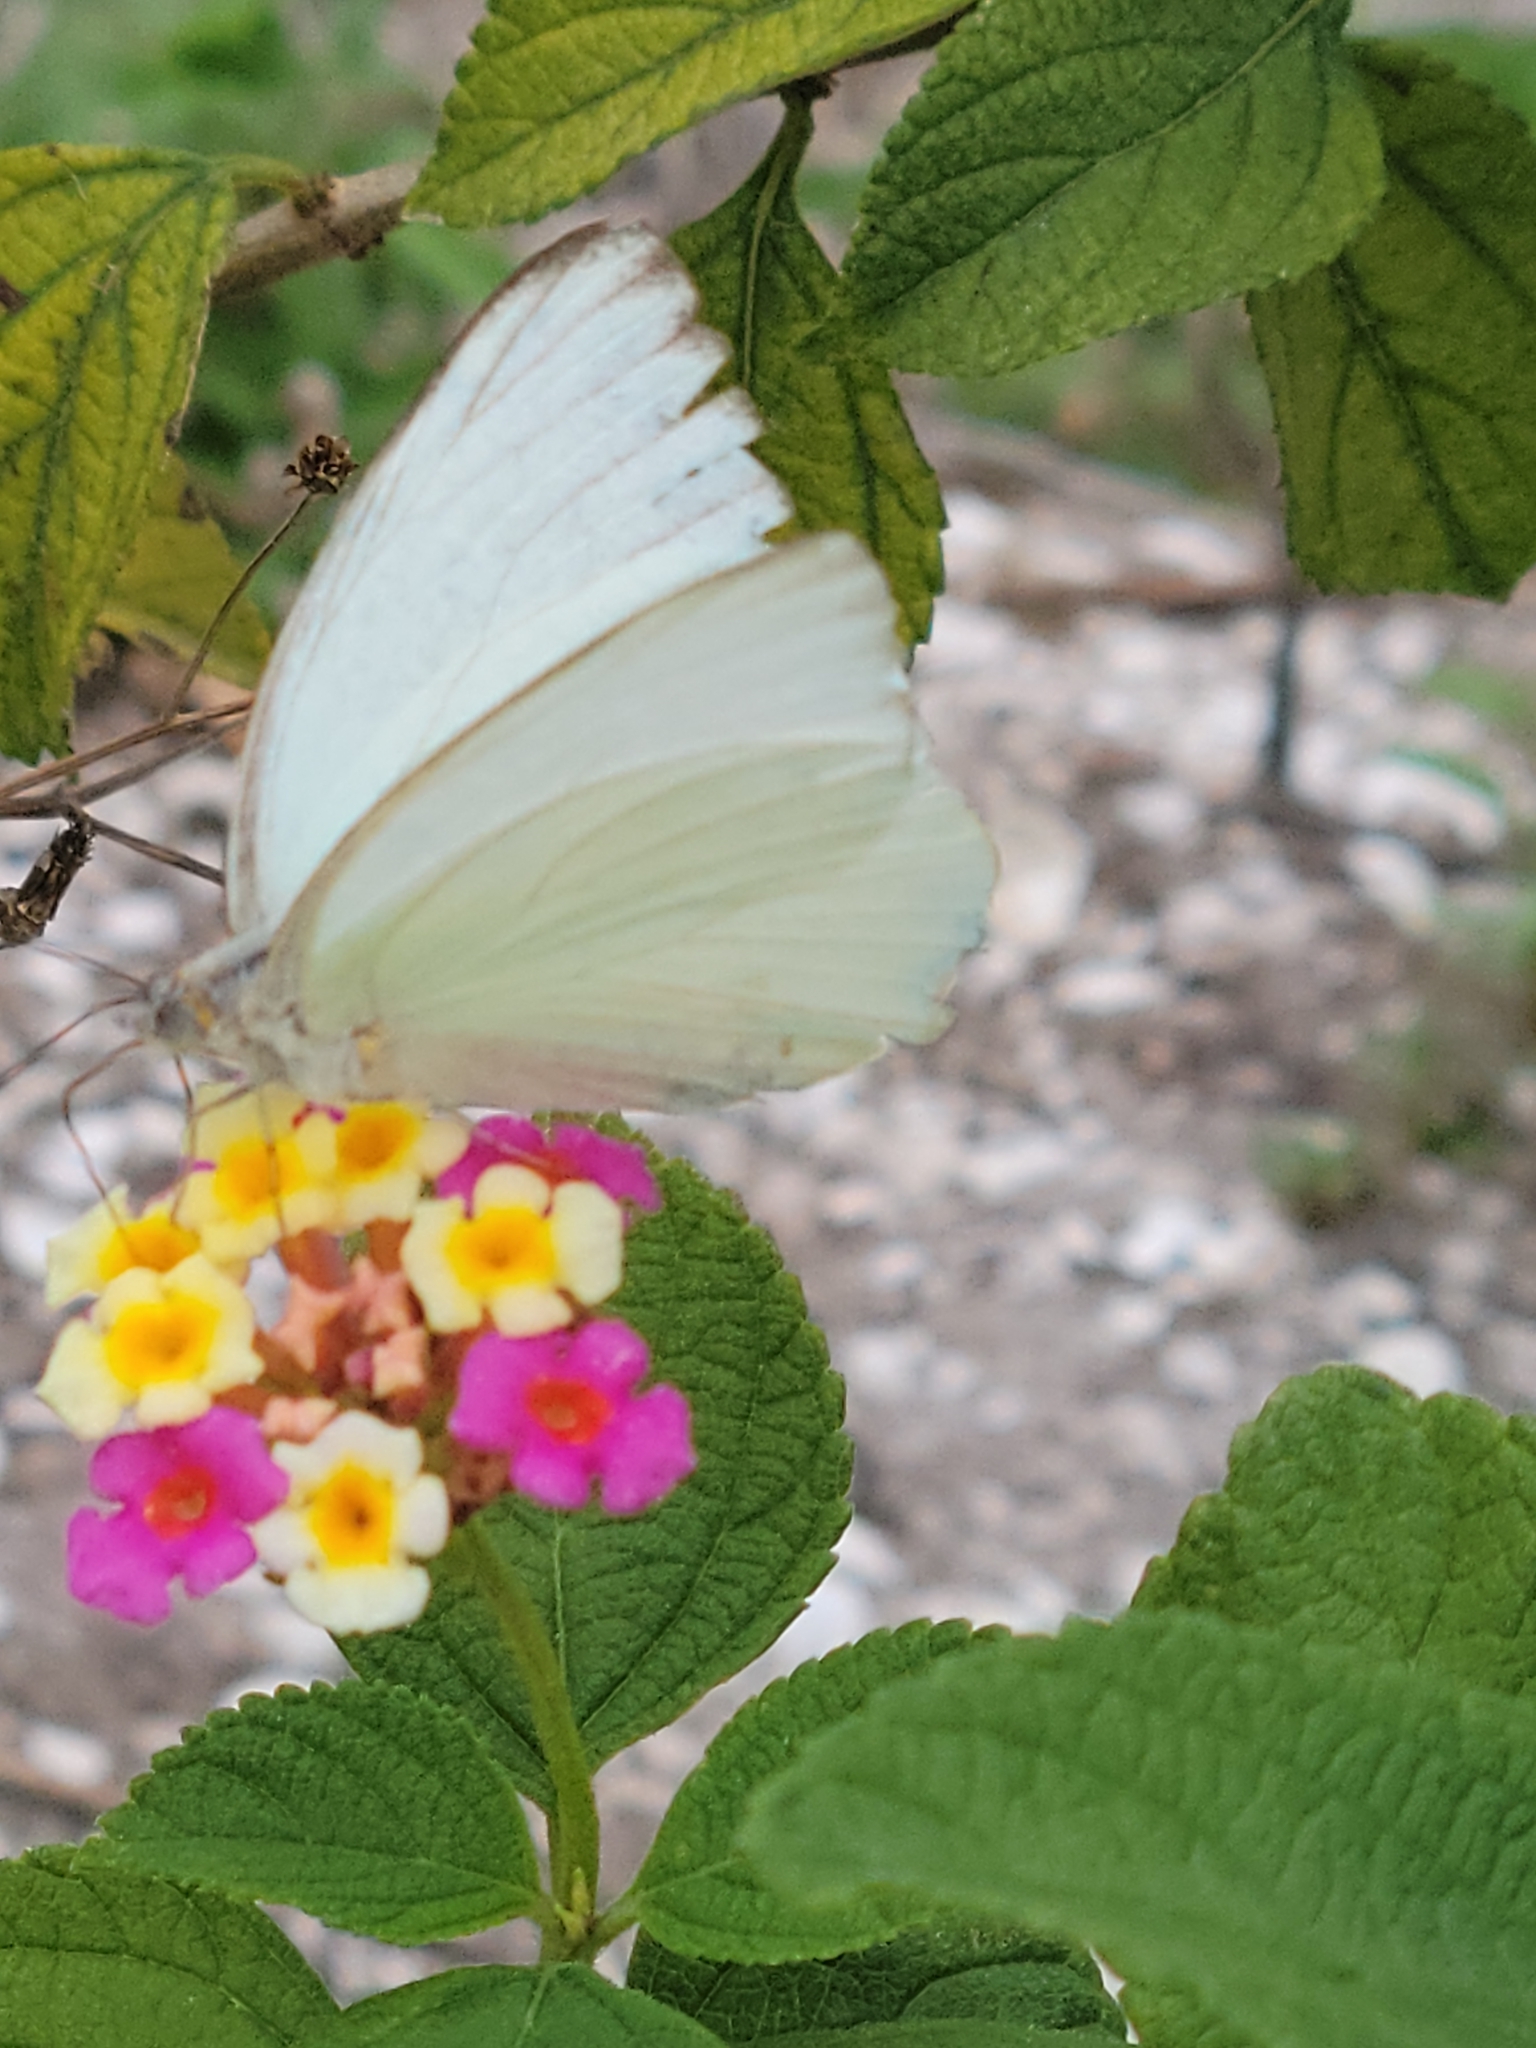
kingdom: Animalia
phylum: Arthropoda
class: Insecta
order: Lepidoptera
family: Pieridae
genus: Ascia
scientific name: Ascia monuste
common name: Great southern white
